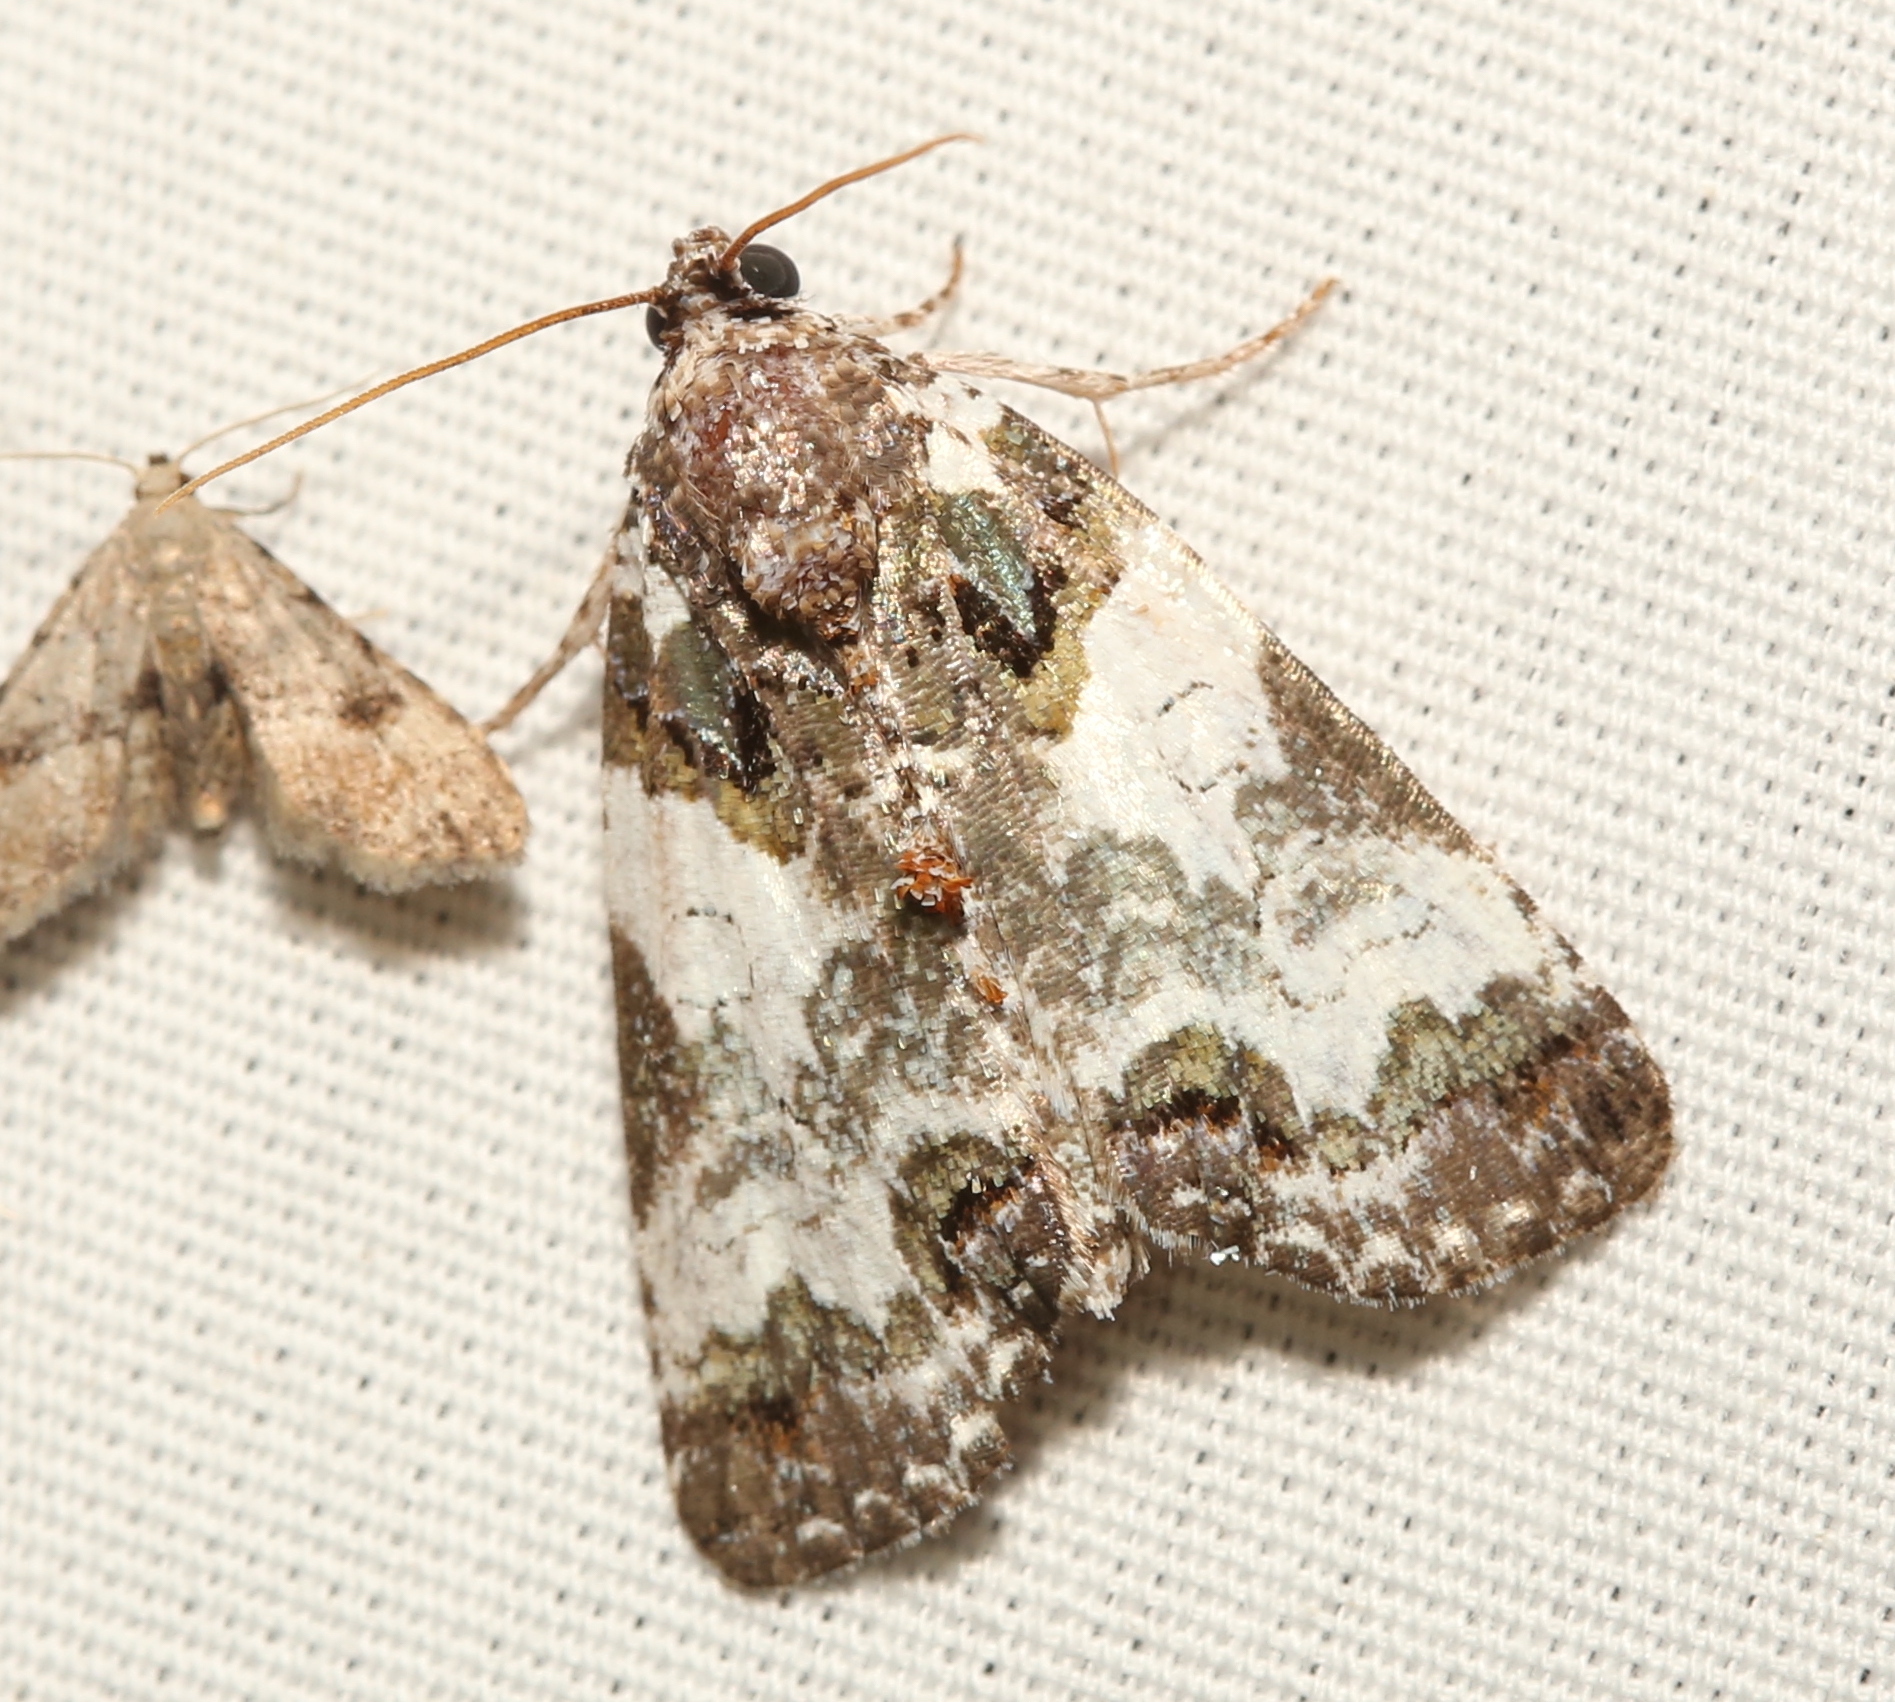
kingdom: Animalia
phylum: Arthropoda
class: Insecta
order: Lepidoptera
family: Noctuidae
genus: Cerma
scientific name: Cerma cerintha
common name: Tufted bird-dropping moth
